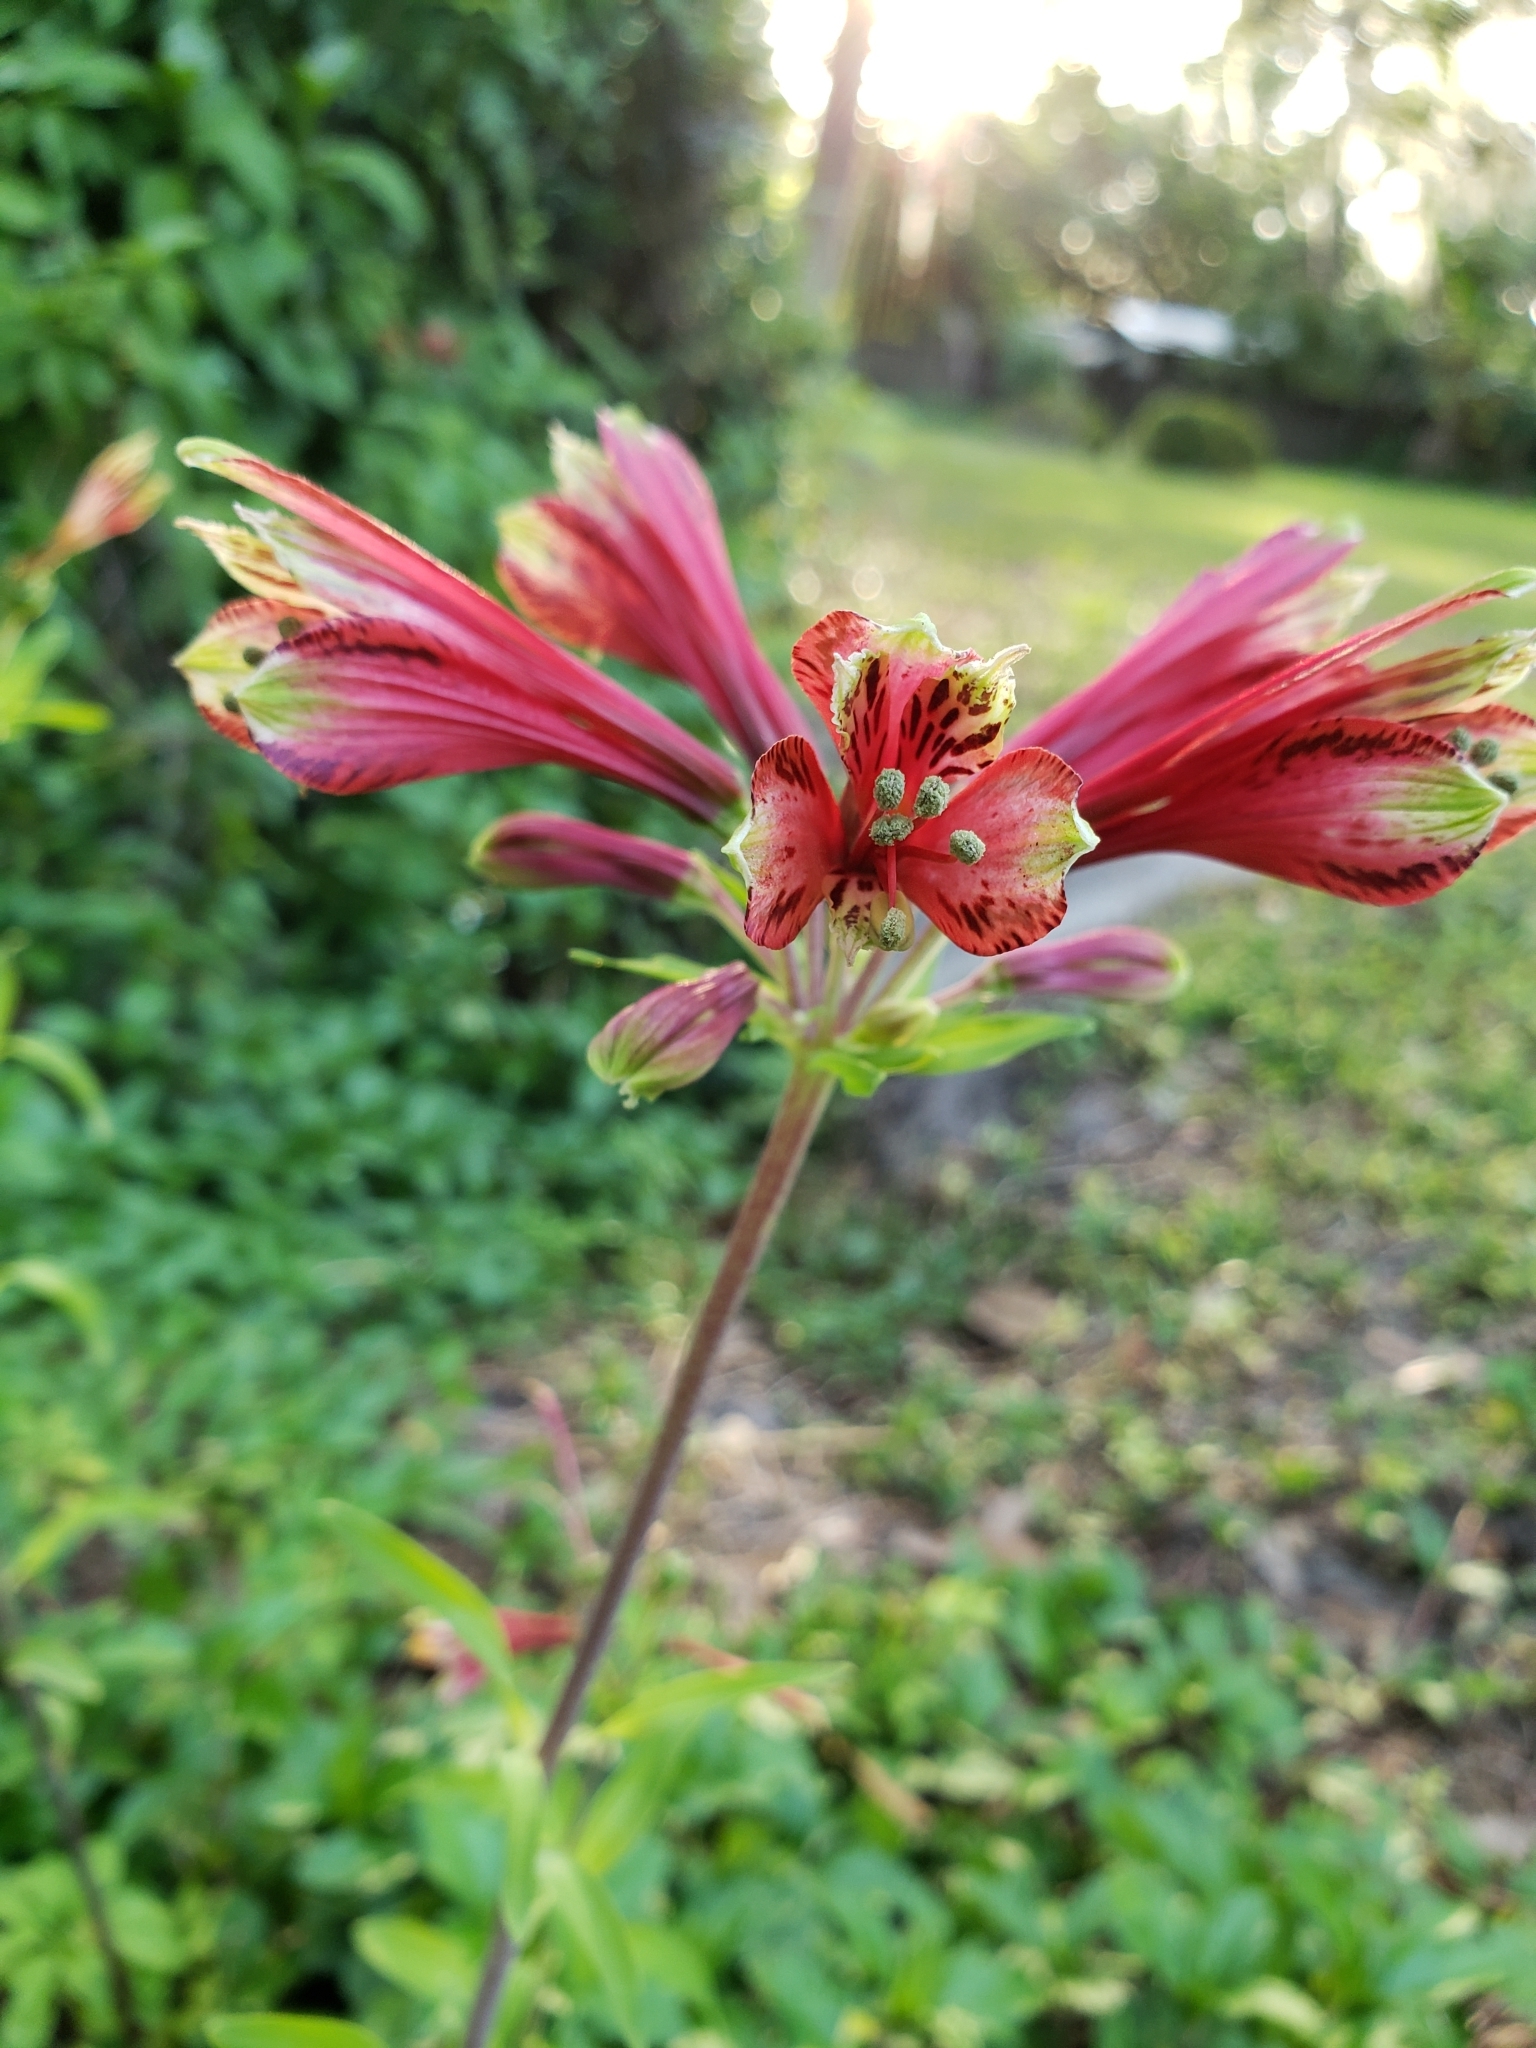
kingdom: Plantae
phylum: Tracheophyta
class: Liliopsida
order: Liliales
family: Alstroemeriaceae
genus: Alstroemeria
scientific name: Alstroemeria psittacina
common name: Peruvian-lily
